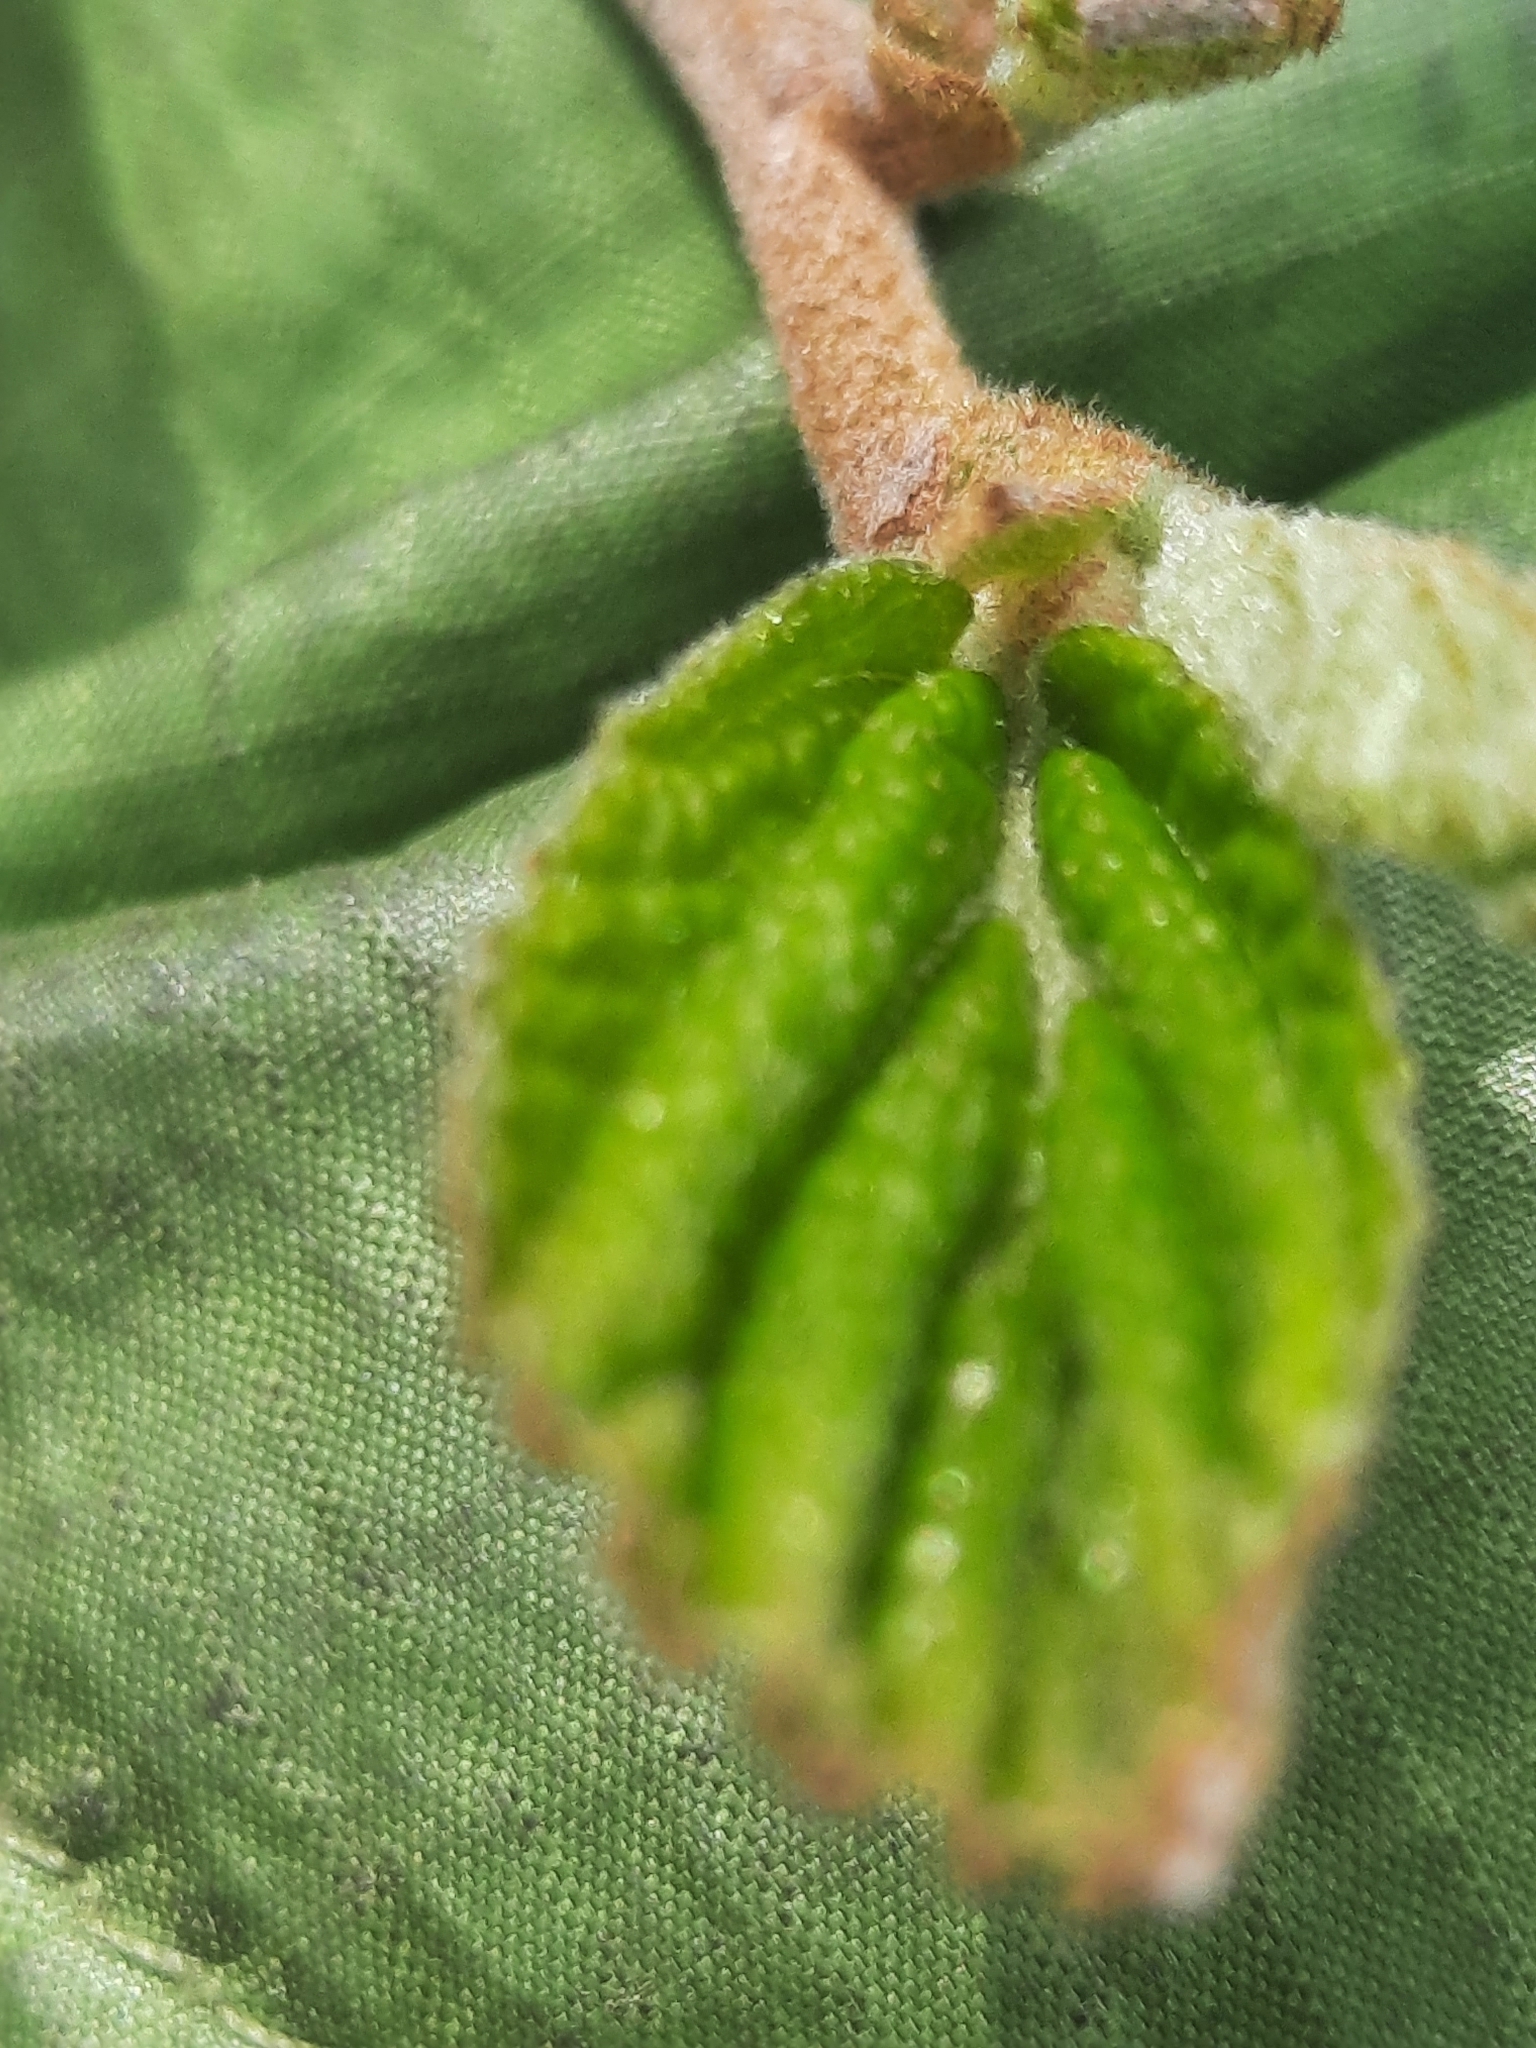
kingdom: Plantae
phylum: Tracheophyta
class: Magnoliopsida
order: Saxifragales
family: Hamamelidaceae
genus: Hamamelis
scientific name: Hamamelis virginiana
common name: Witch-hazel
